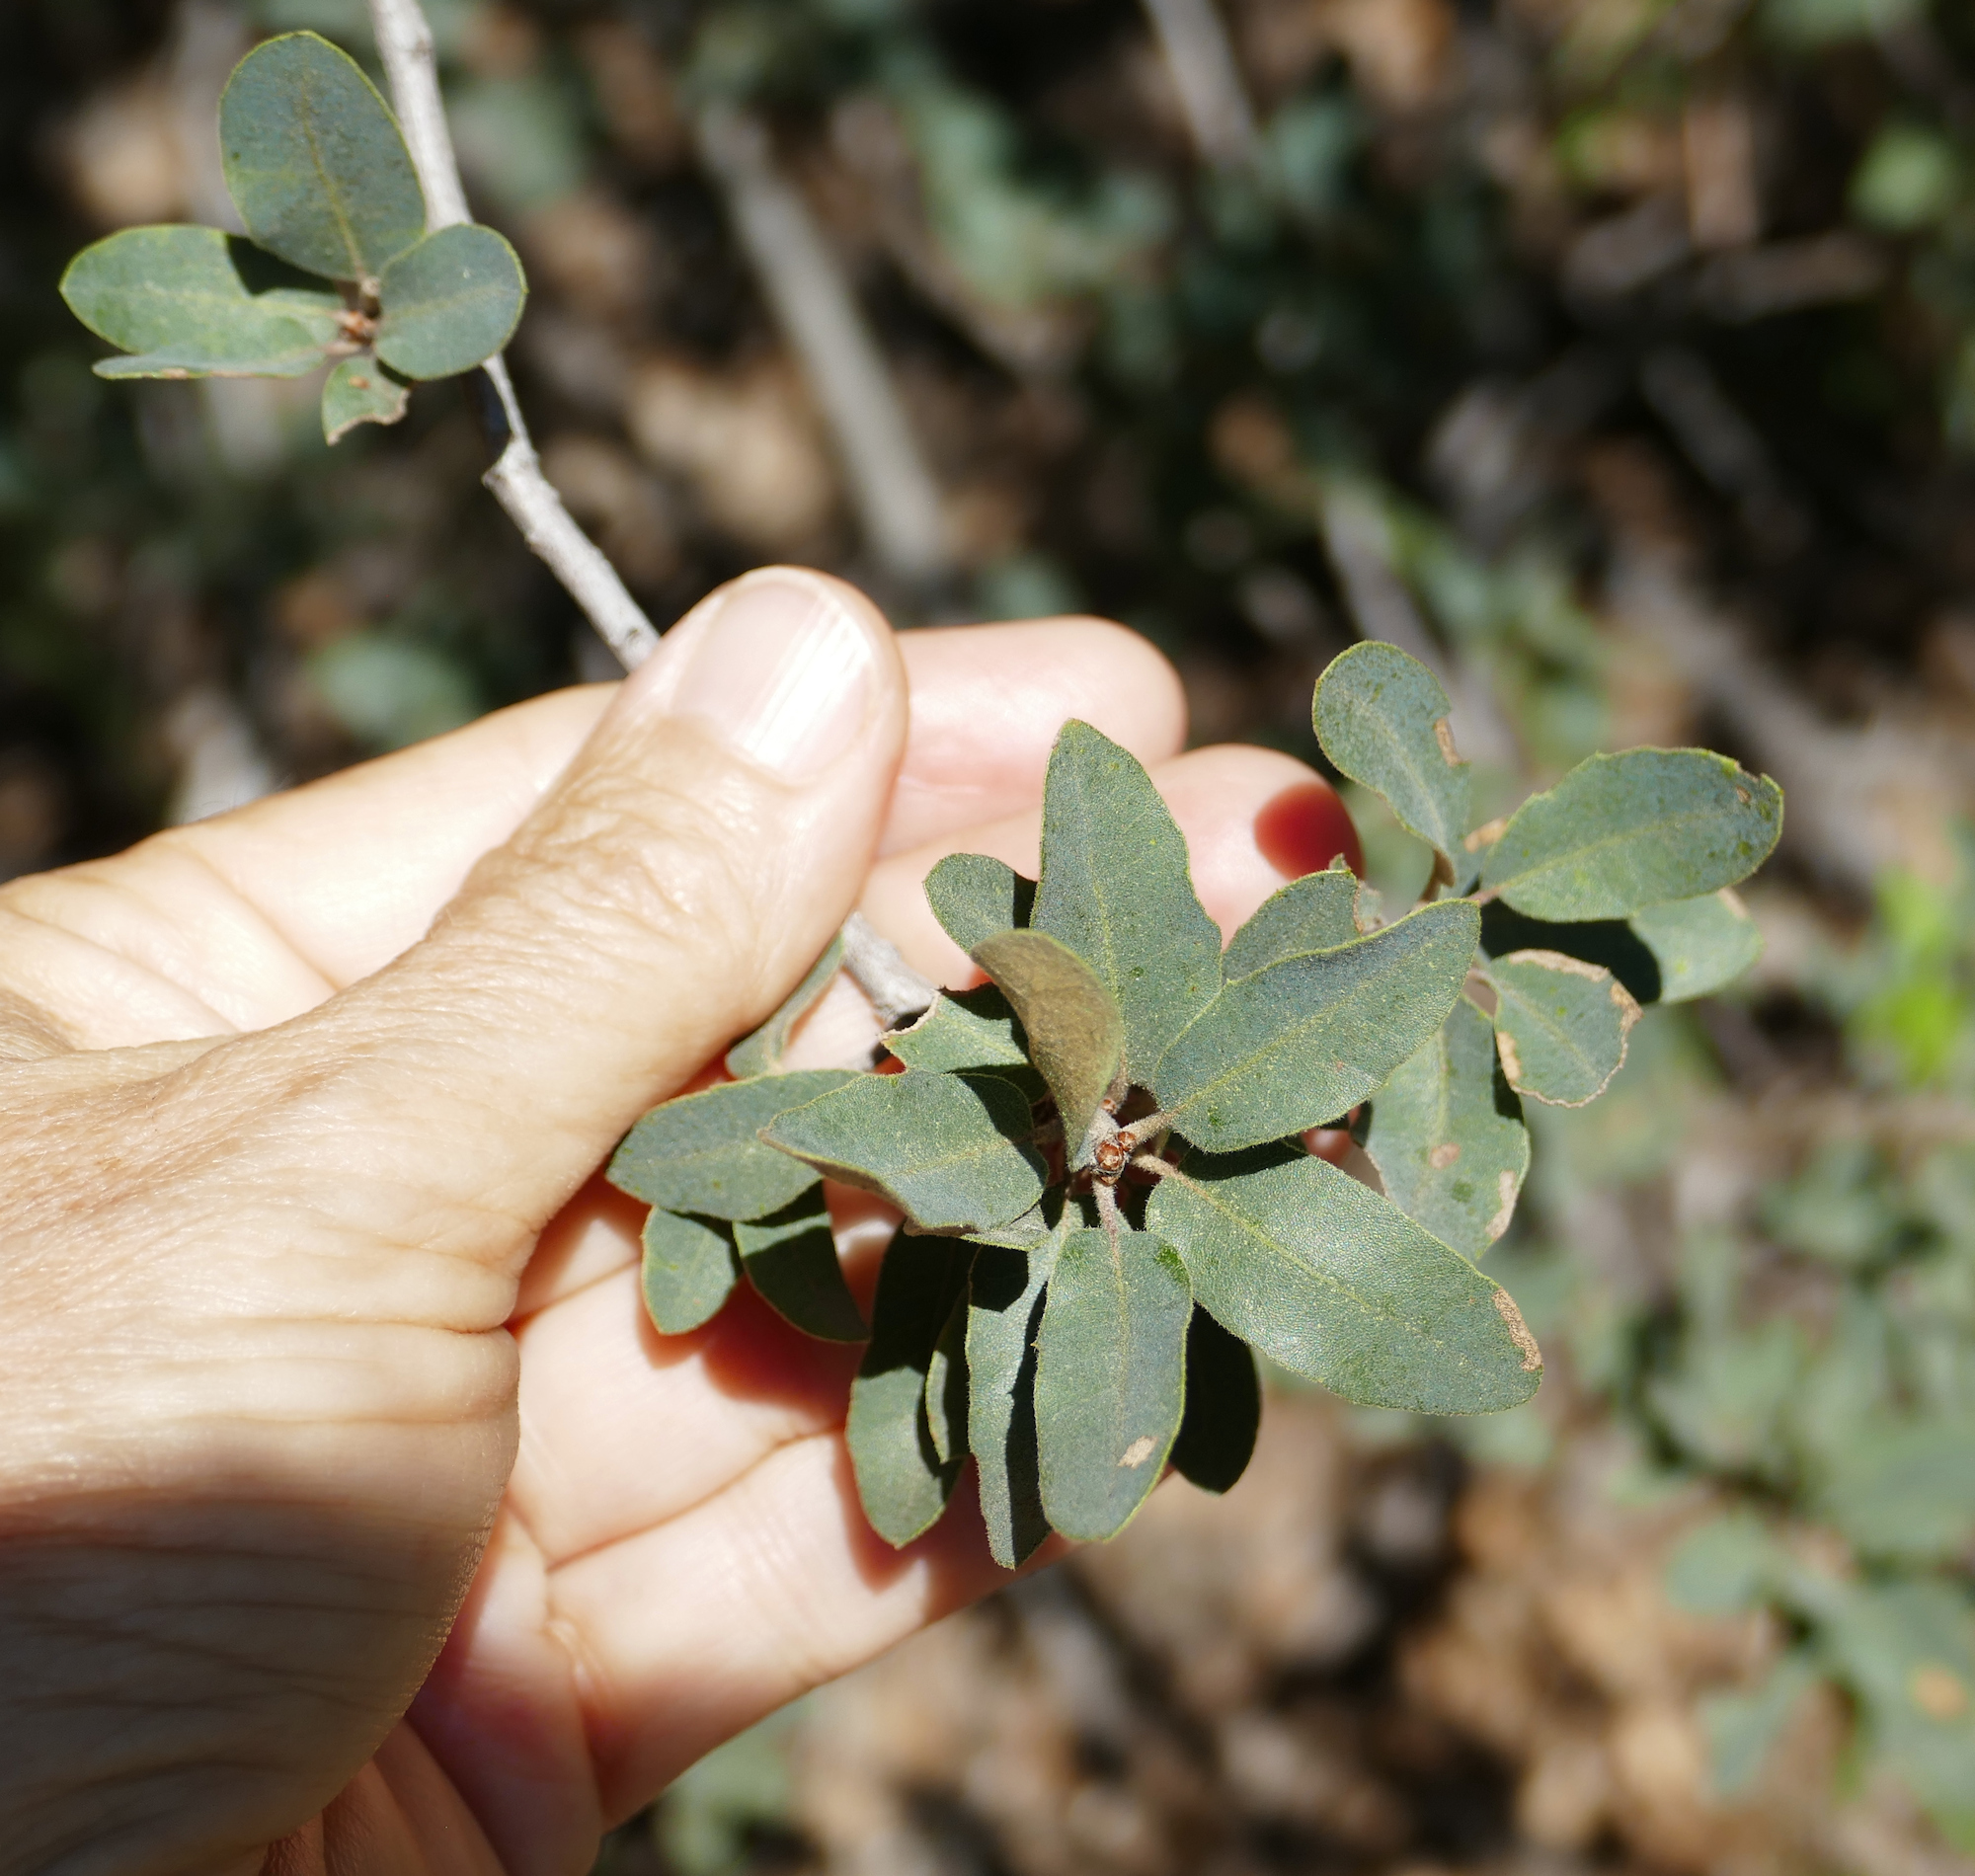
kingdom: Plantae
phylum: Tracheophyta
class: Magnoliopsida
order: Fagales
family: Fagaceae
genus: Quercus
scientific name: Quercus grisea
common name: Gray oak
